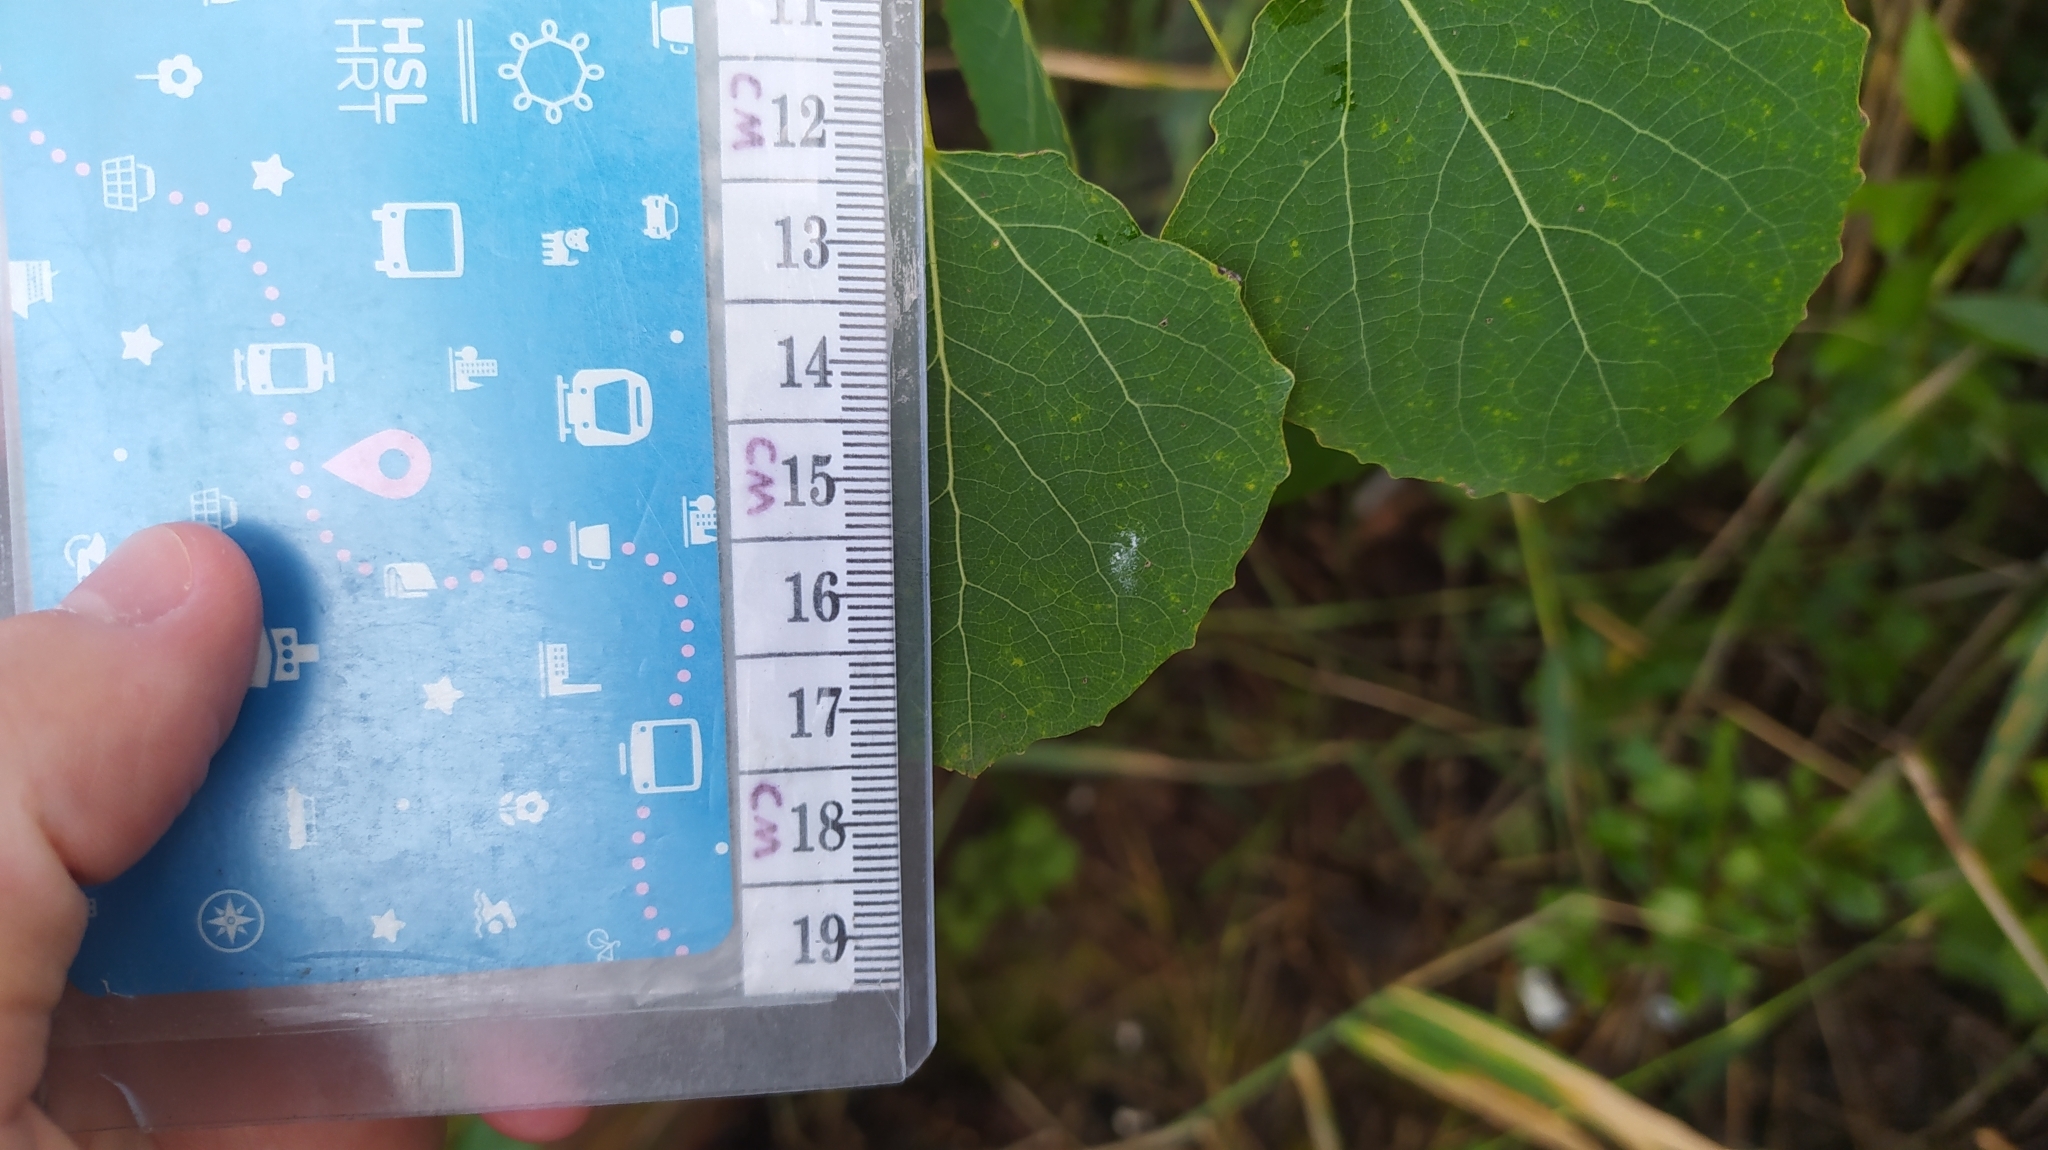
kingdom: Plantae
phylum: Tracheophyta
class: Magnoliopsida
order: Malpighiales
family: Salicaceae
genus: Populus
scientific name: Populus tremula
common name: European aspen
